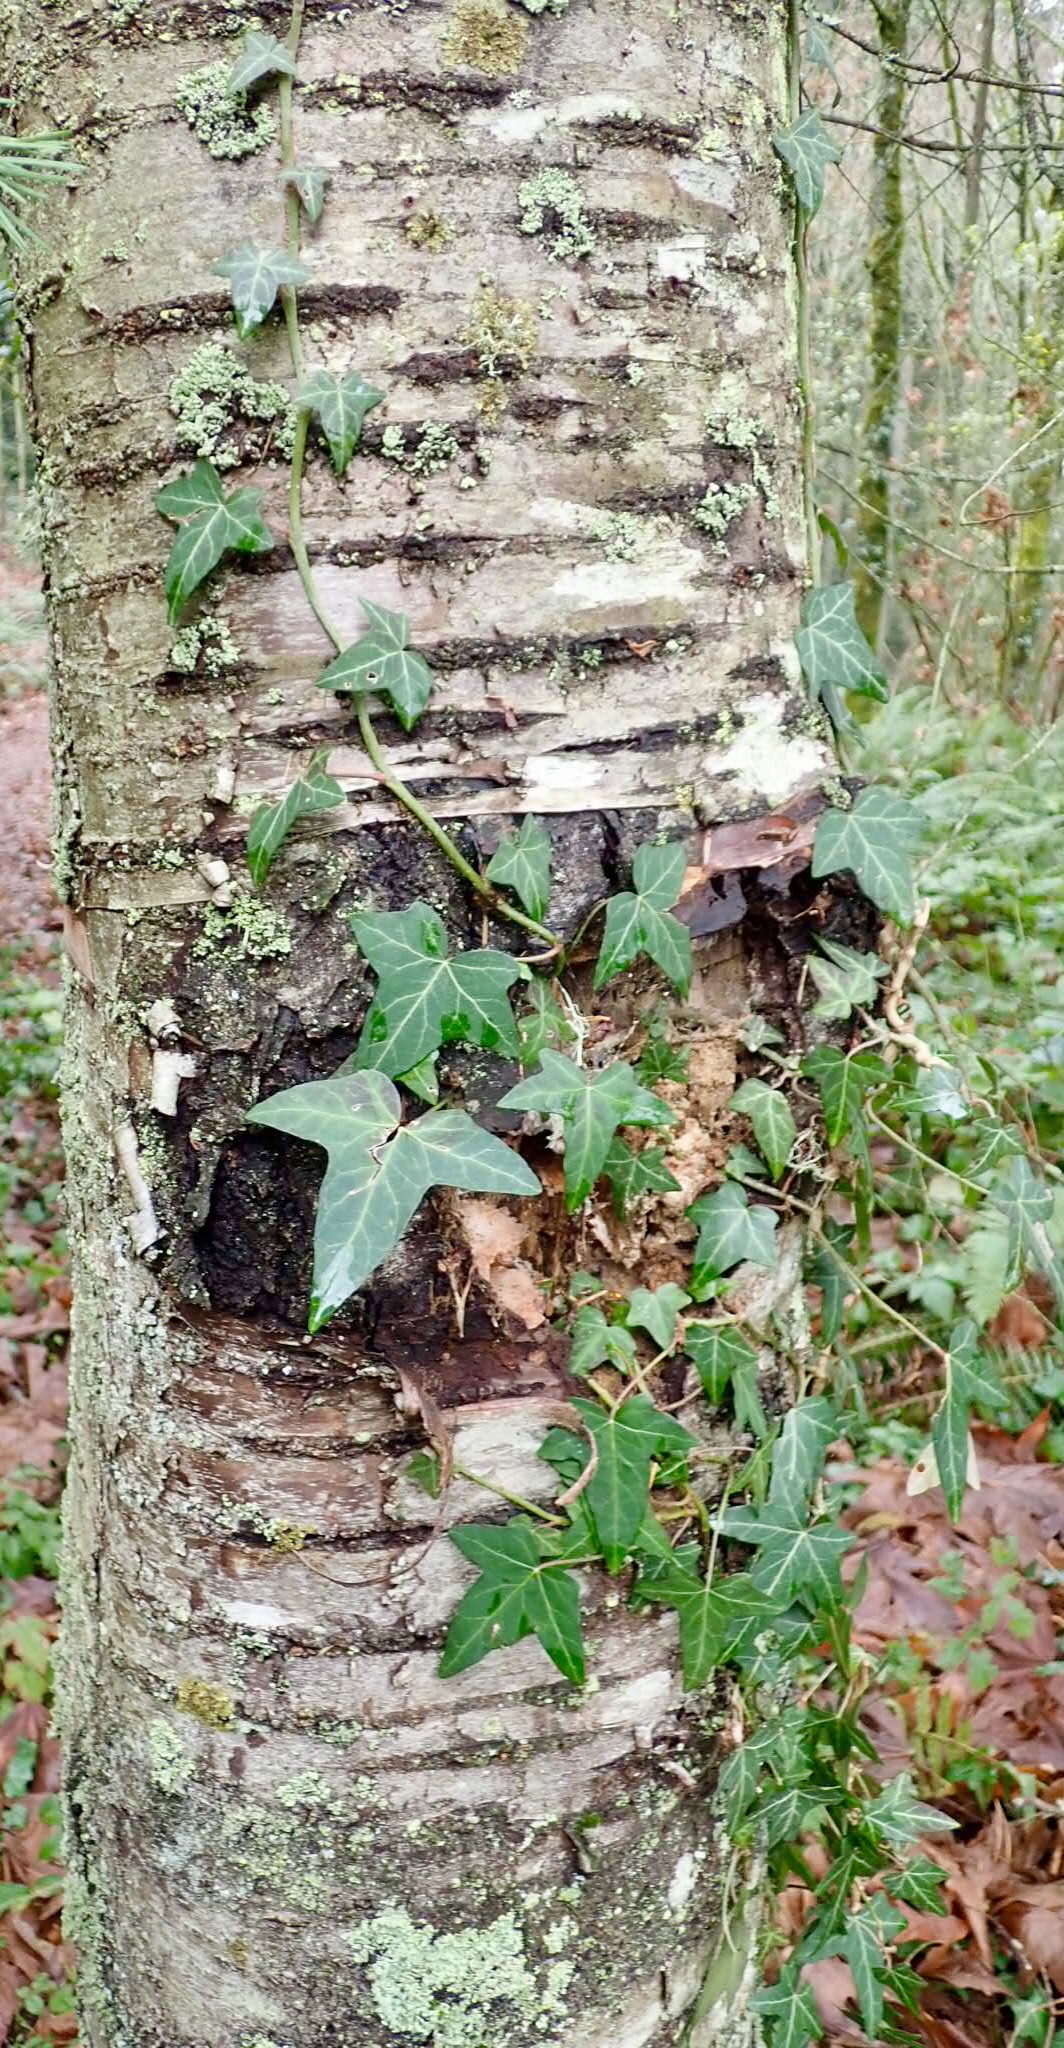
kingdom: Plantae
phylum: Tracheophyta
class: Magnoliopsida
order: Apiales
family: Araliaceae
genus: Hedera
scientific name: Hedera helix
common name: Ivy
